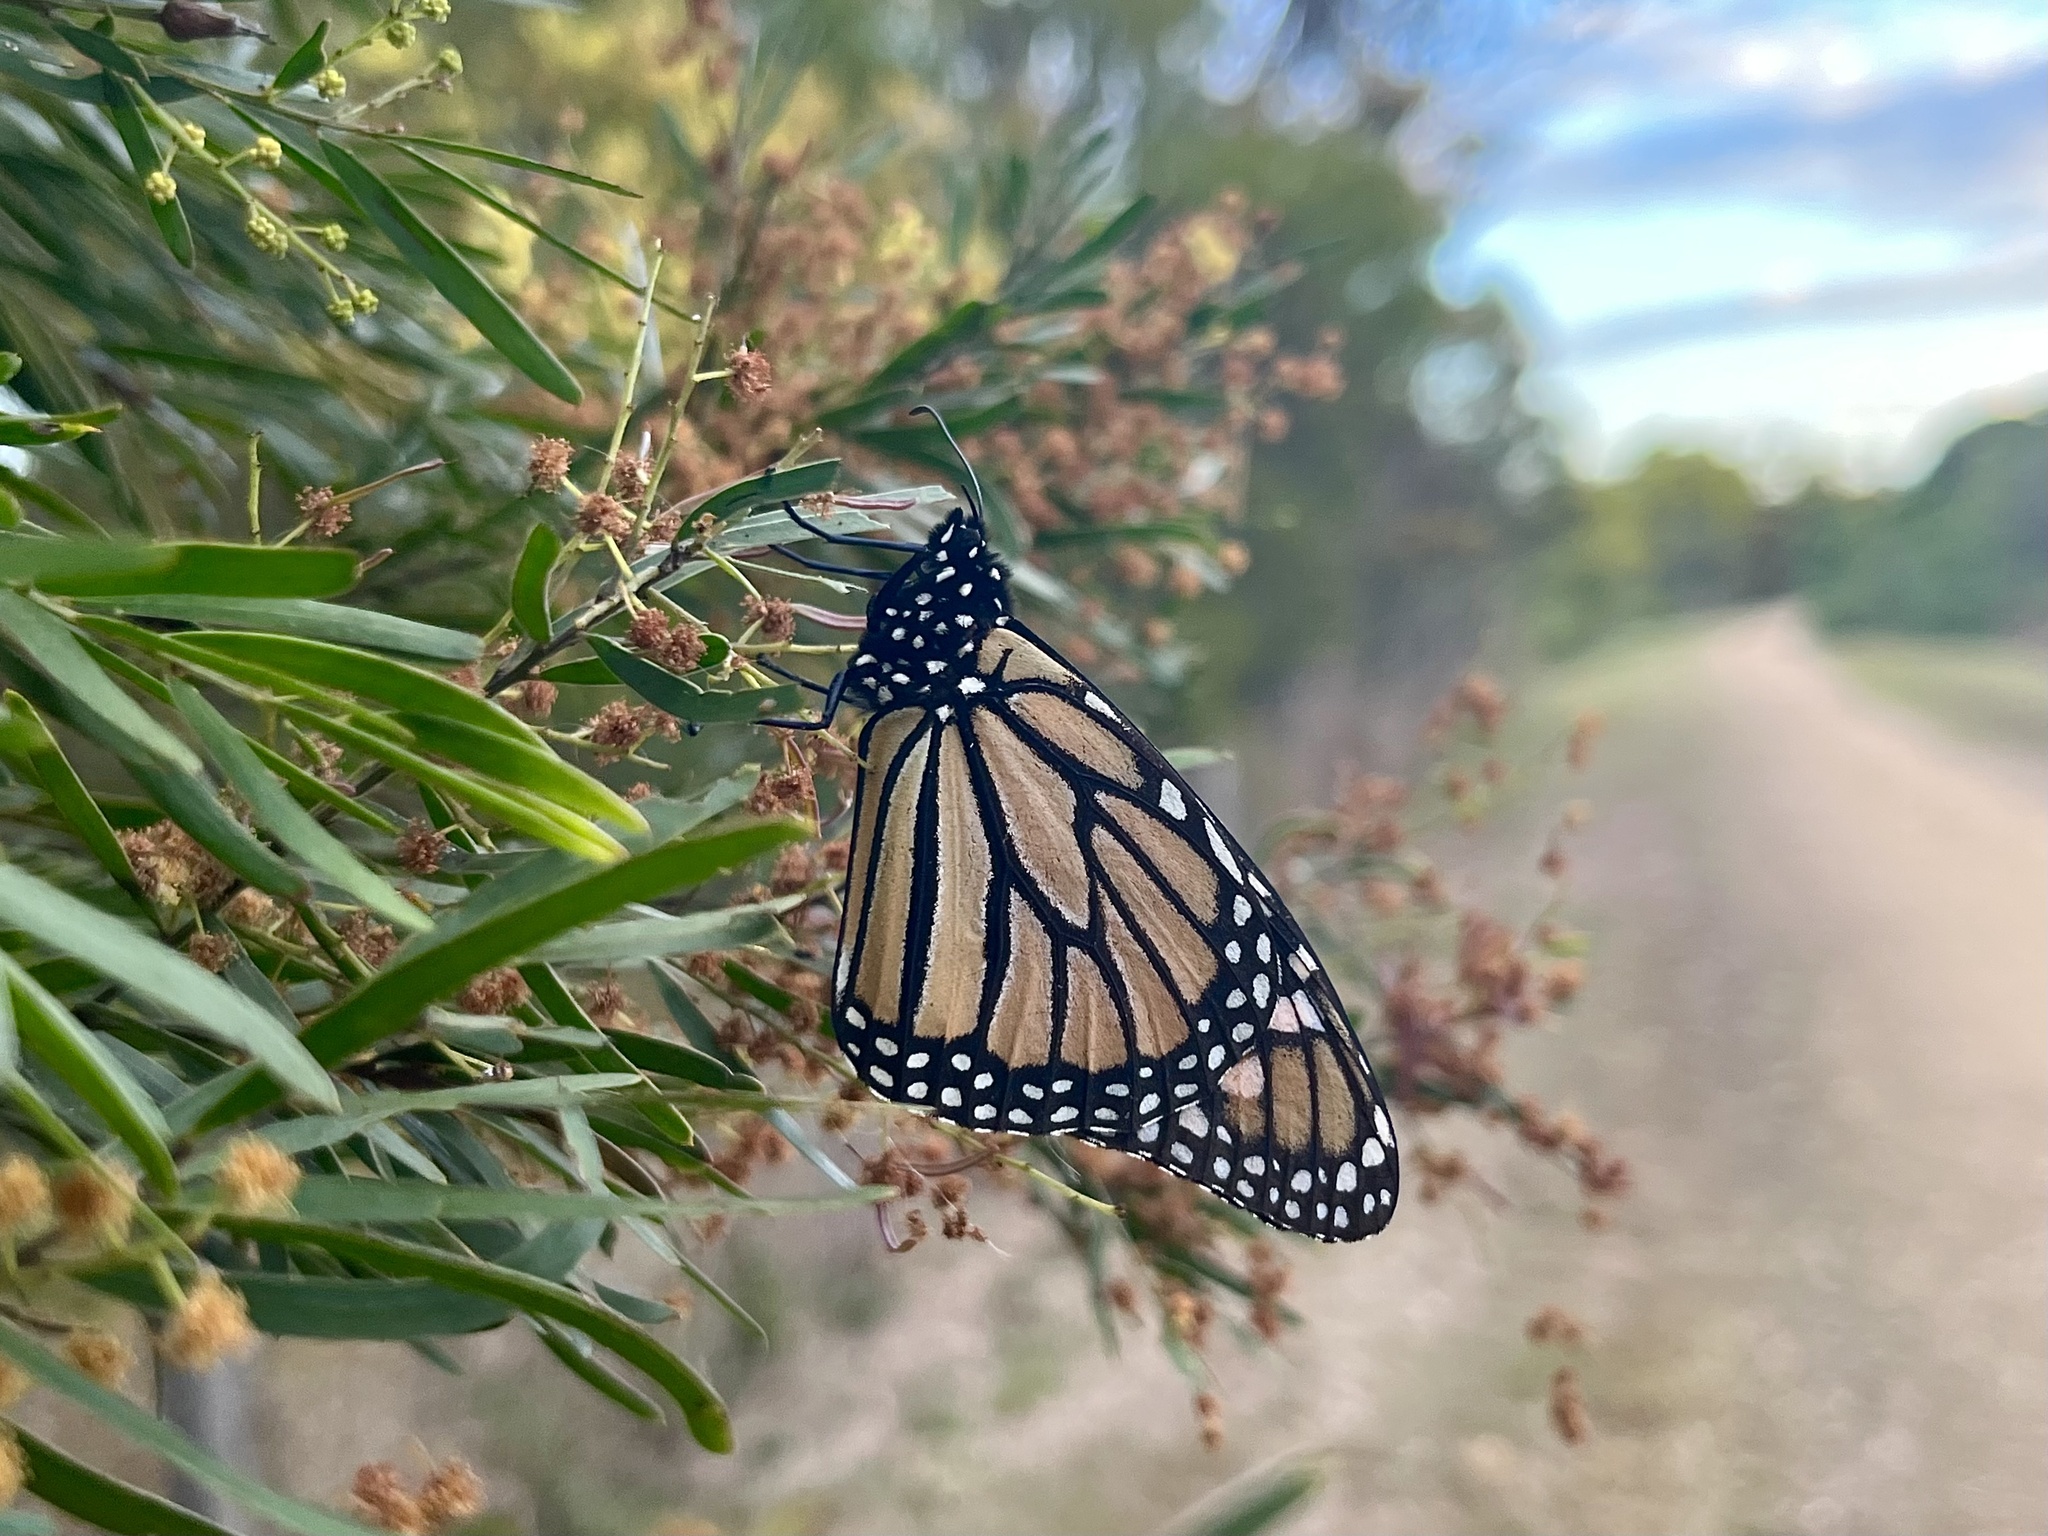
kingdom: Animalia
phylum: Arthropoda
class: Insecta
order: Lepidoptera
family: Nymphalidae
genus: Danaus
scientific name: Danaus plexippus
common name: Monarch
